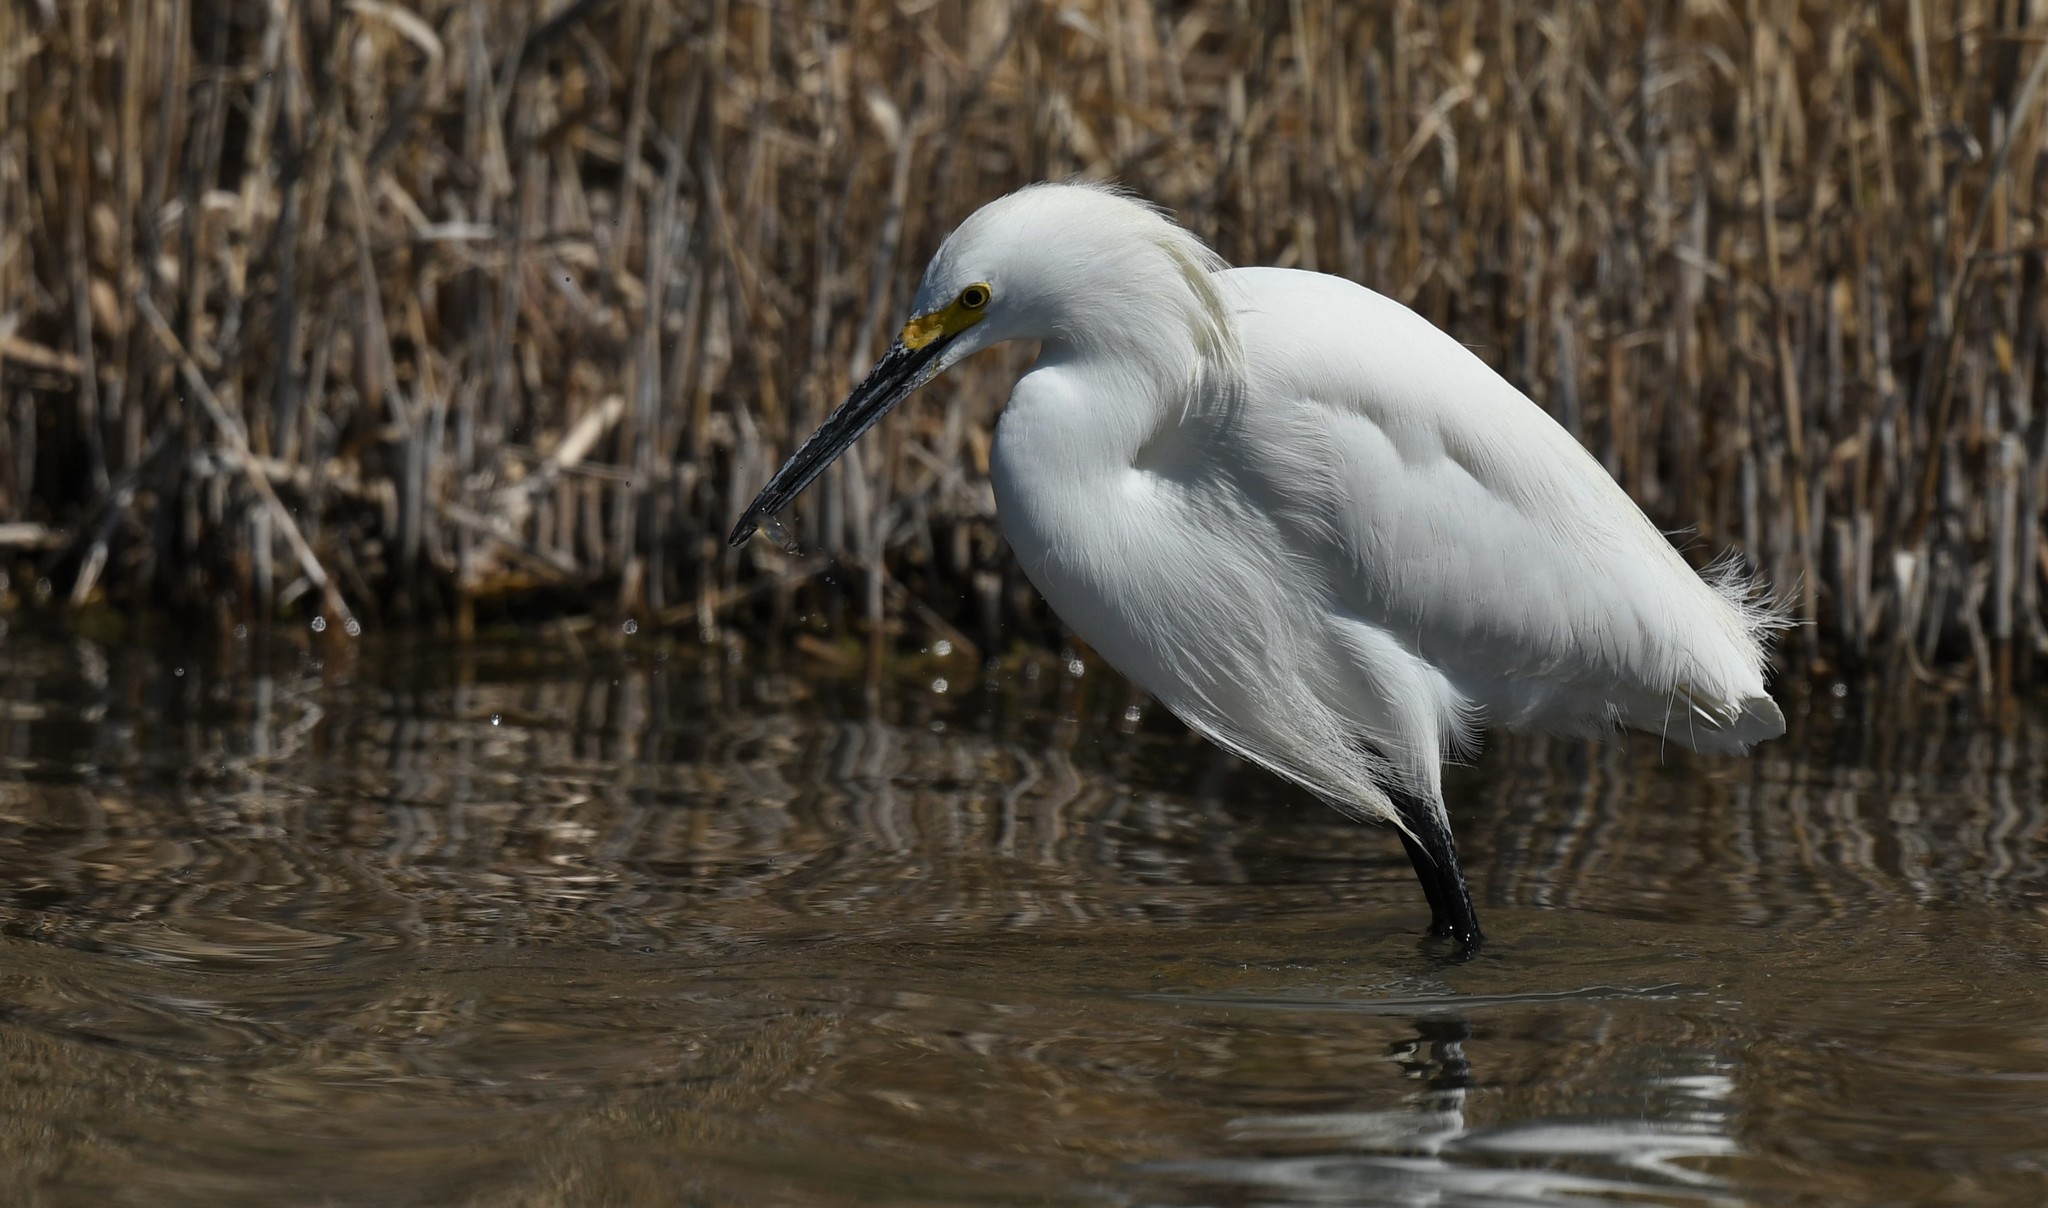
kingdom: Animalia
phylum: Chordata
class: Aves
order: Pelecaniformes
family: Ardeidae
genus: Egretta
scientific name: Egretta thula
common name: Snowy egret
